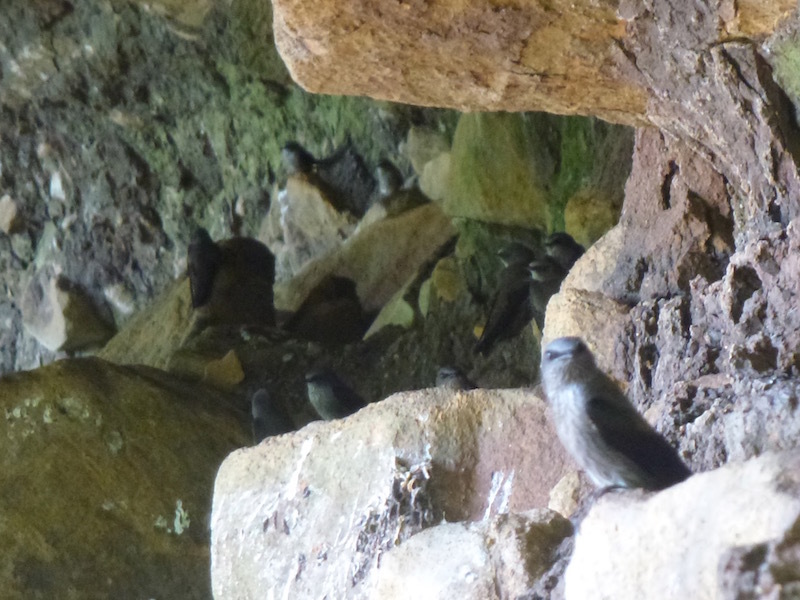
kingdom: Animalia
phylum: Chordata
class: Aves
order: Passeriformes
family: Hirundinidae
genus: Phedina
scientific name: Phedina borbonica
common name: Mascarene martin
